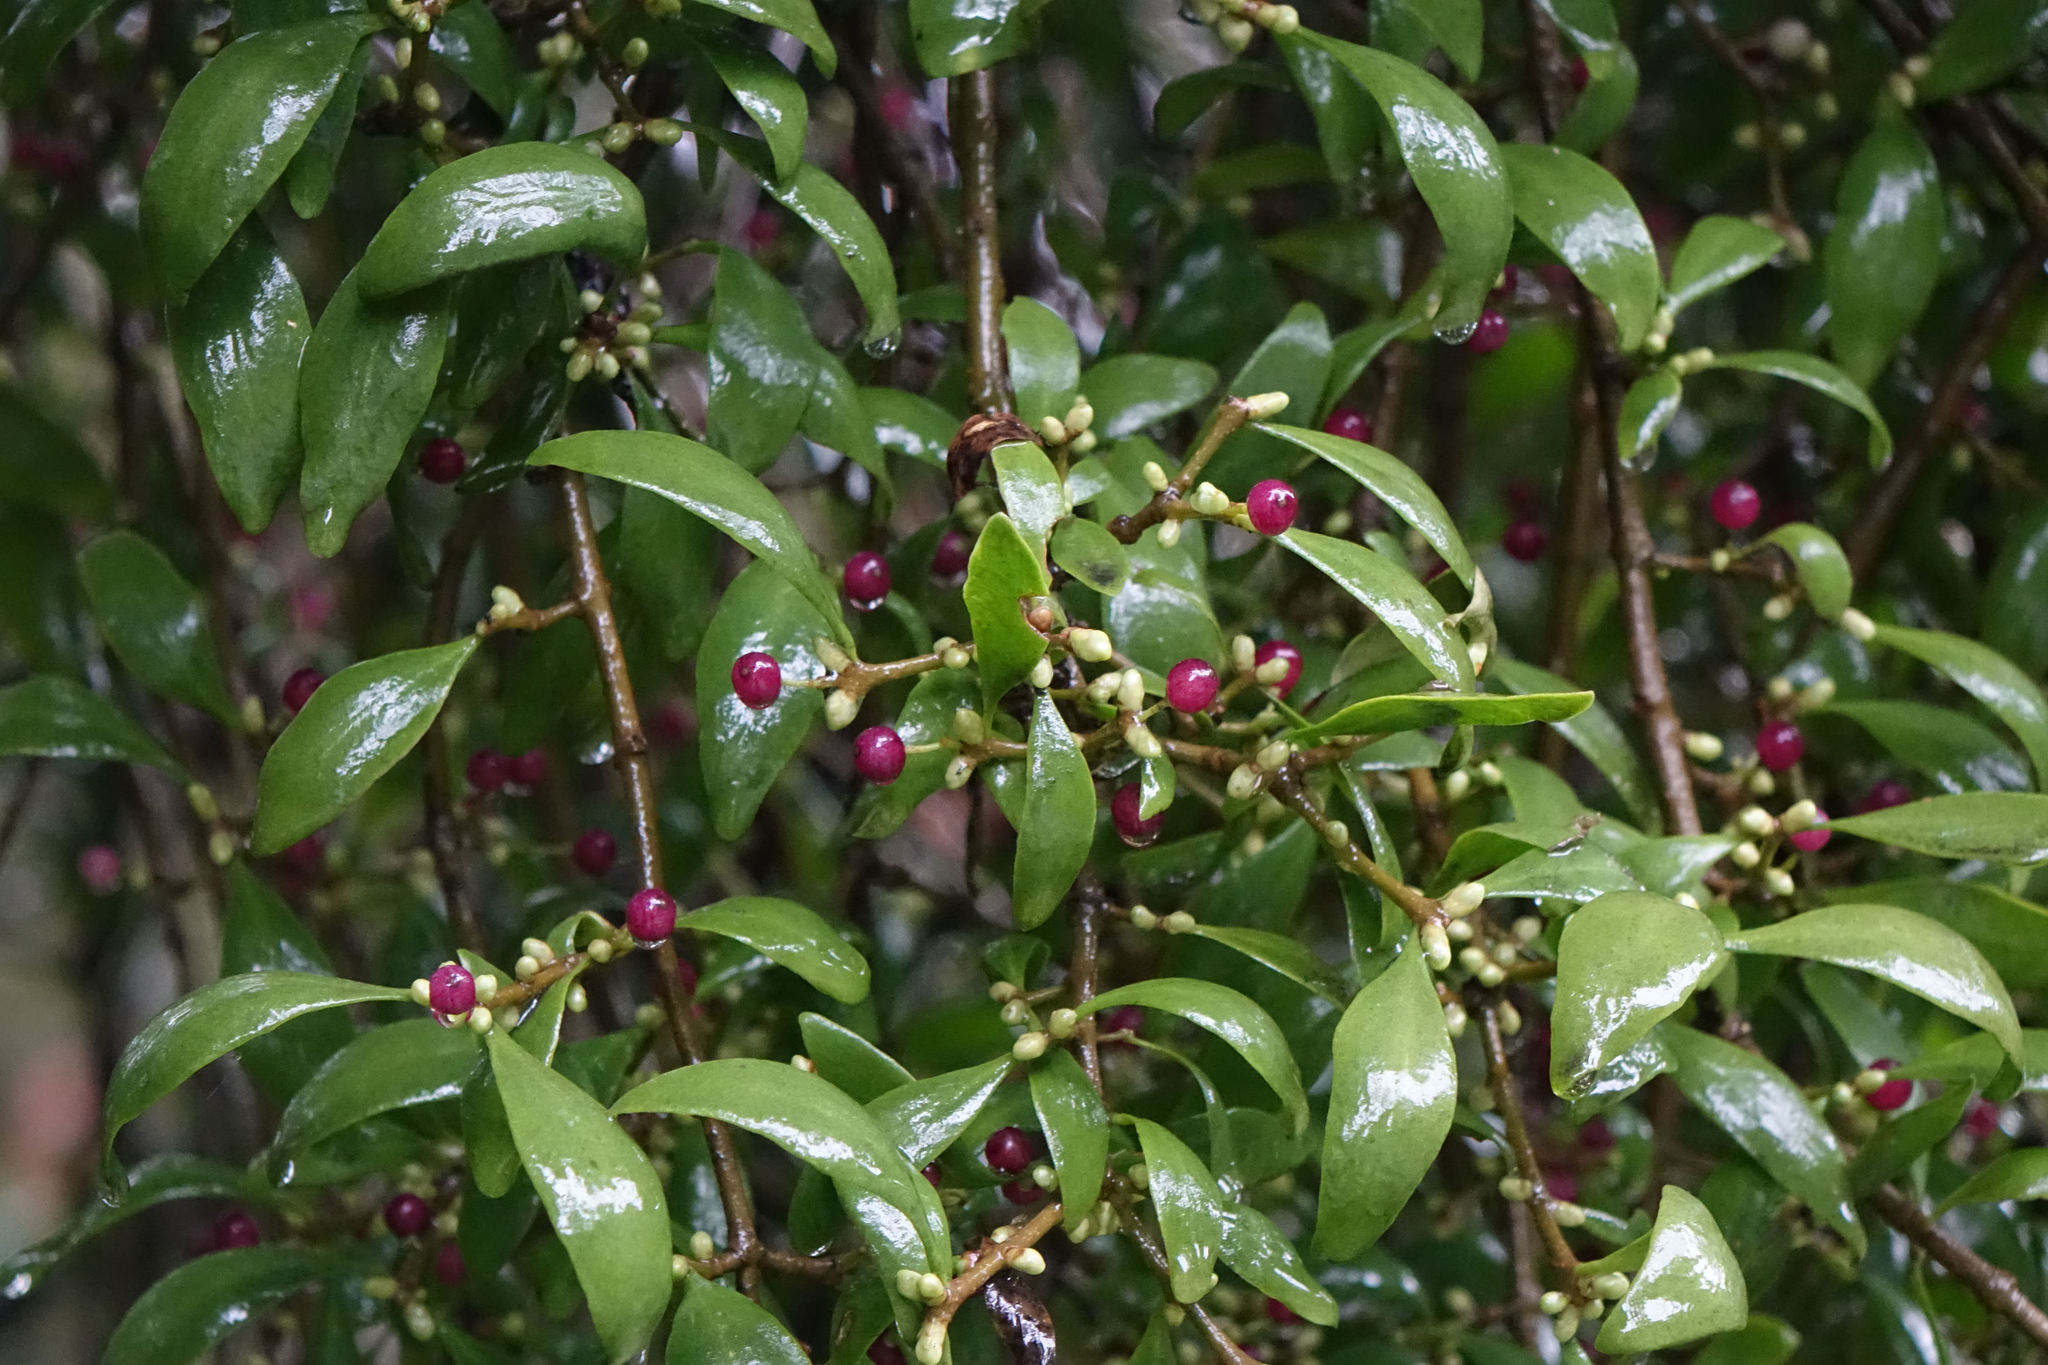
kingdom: Plantae
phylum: Tracheophyta
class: Magnoliopsida
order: Santalales
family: Loranthaceae
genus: Tupeia
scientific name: Tupeia antarctica
